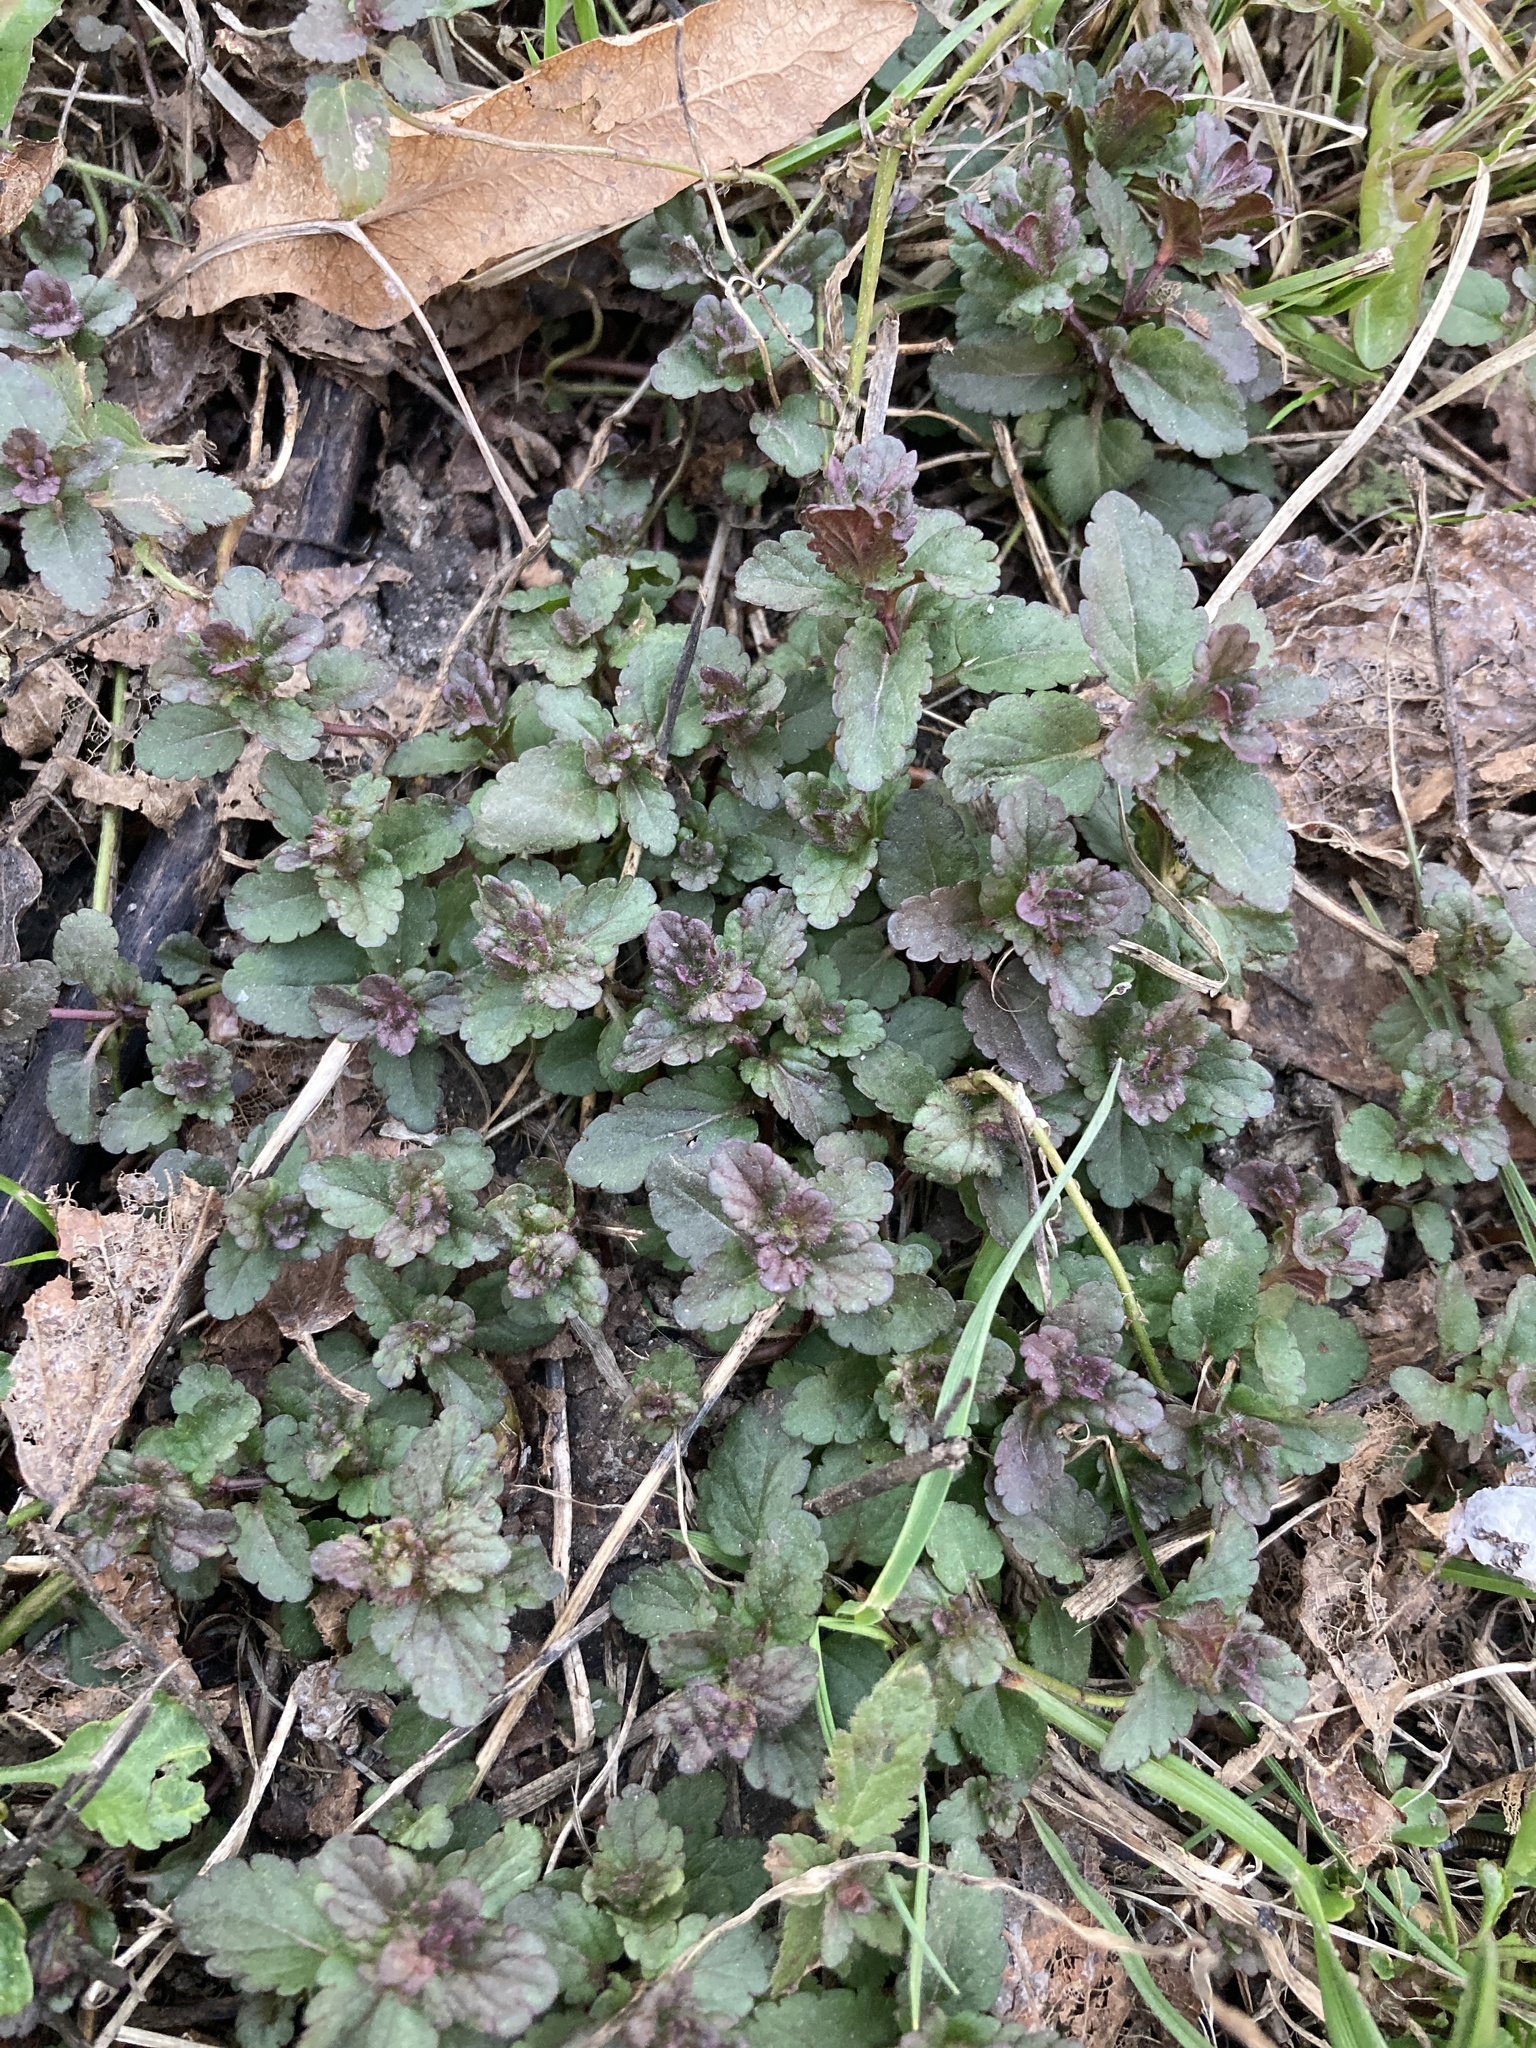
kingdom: Plantae
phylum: Tracheophyta
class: Magnoliopsida
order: Lamiales
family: Plantaginaceae
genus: Veronica
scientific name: Veronica chamaedrys
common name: Germander speedwell
